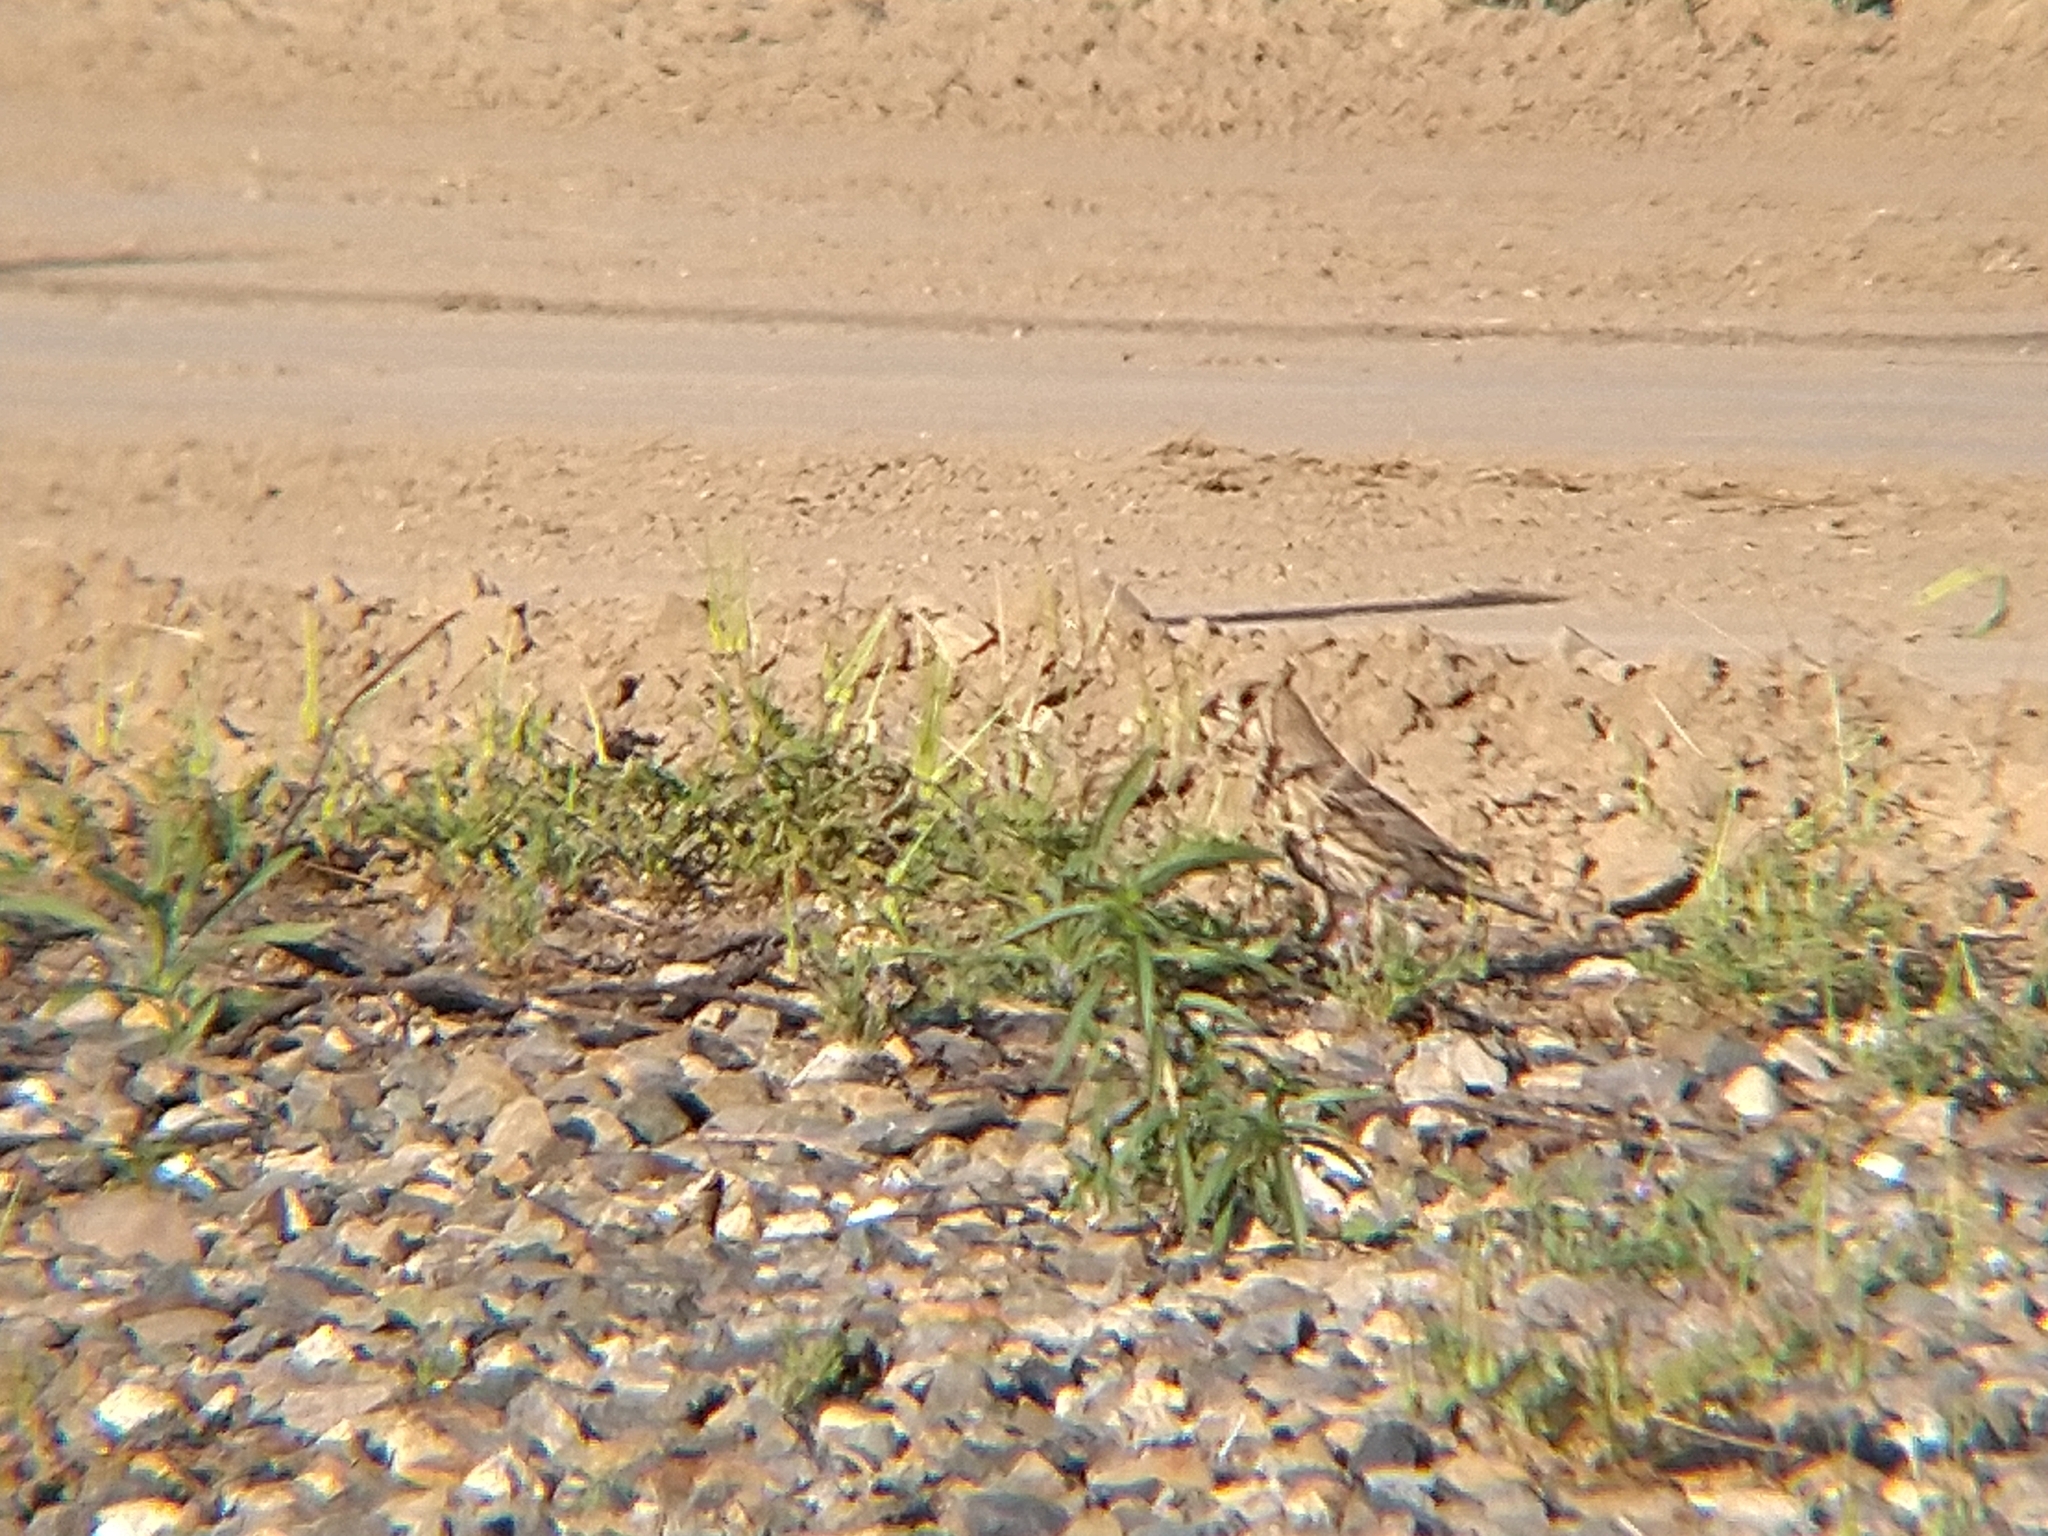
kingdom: Animalia
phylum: Chordata
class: Aves
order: Passeriformes
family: Fringillidae
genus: Haemorhous
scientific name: Haemorhous mexicanus
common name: House finch
